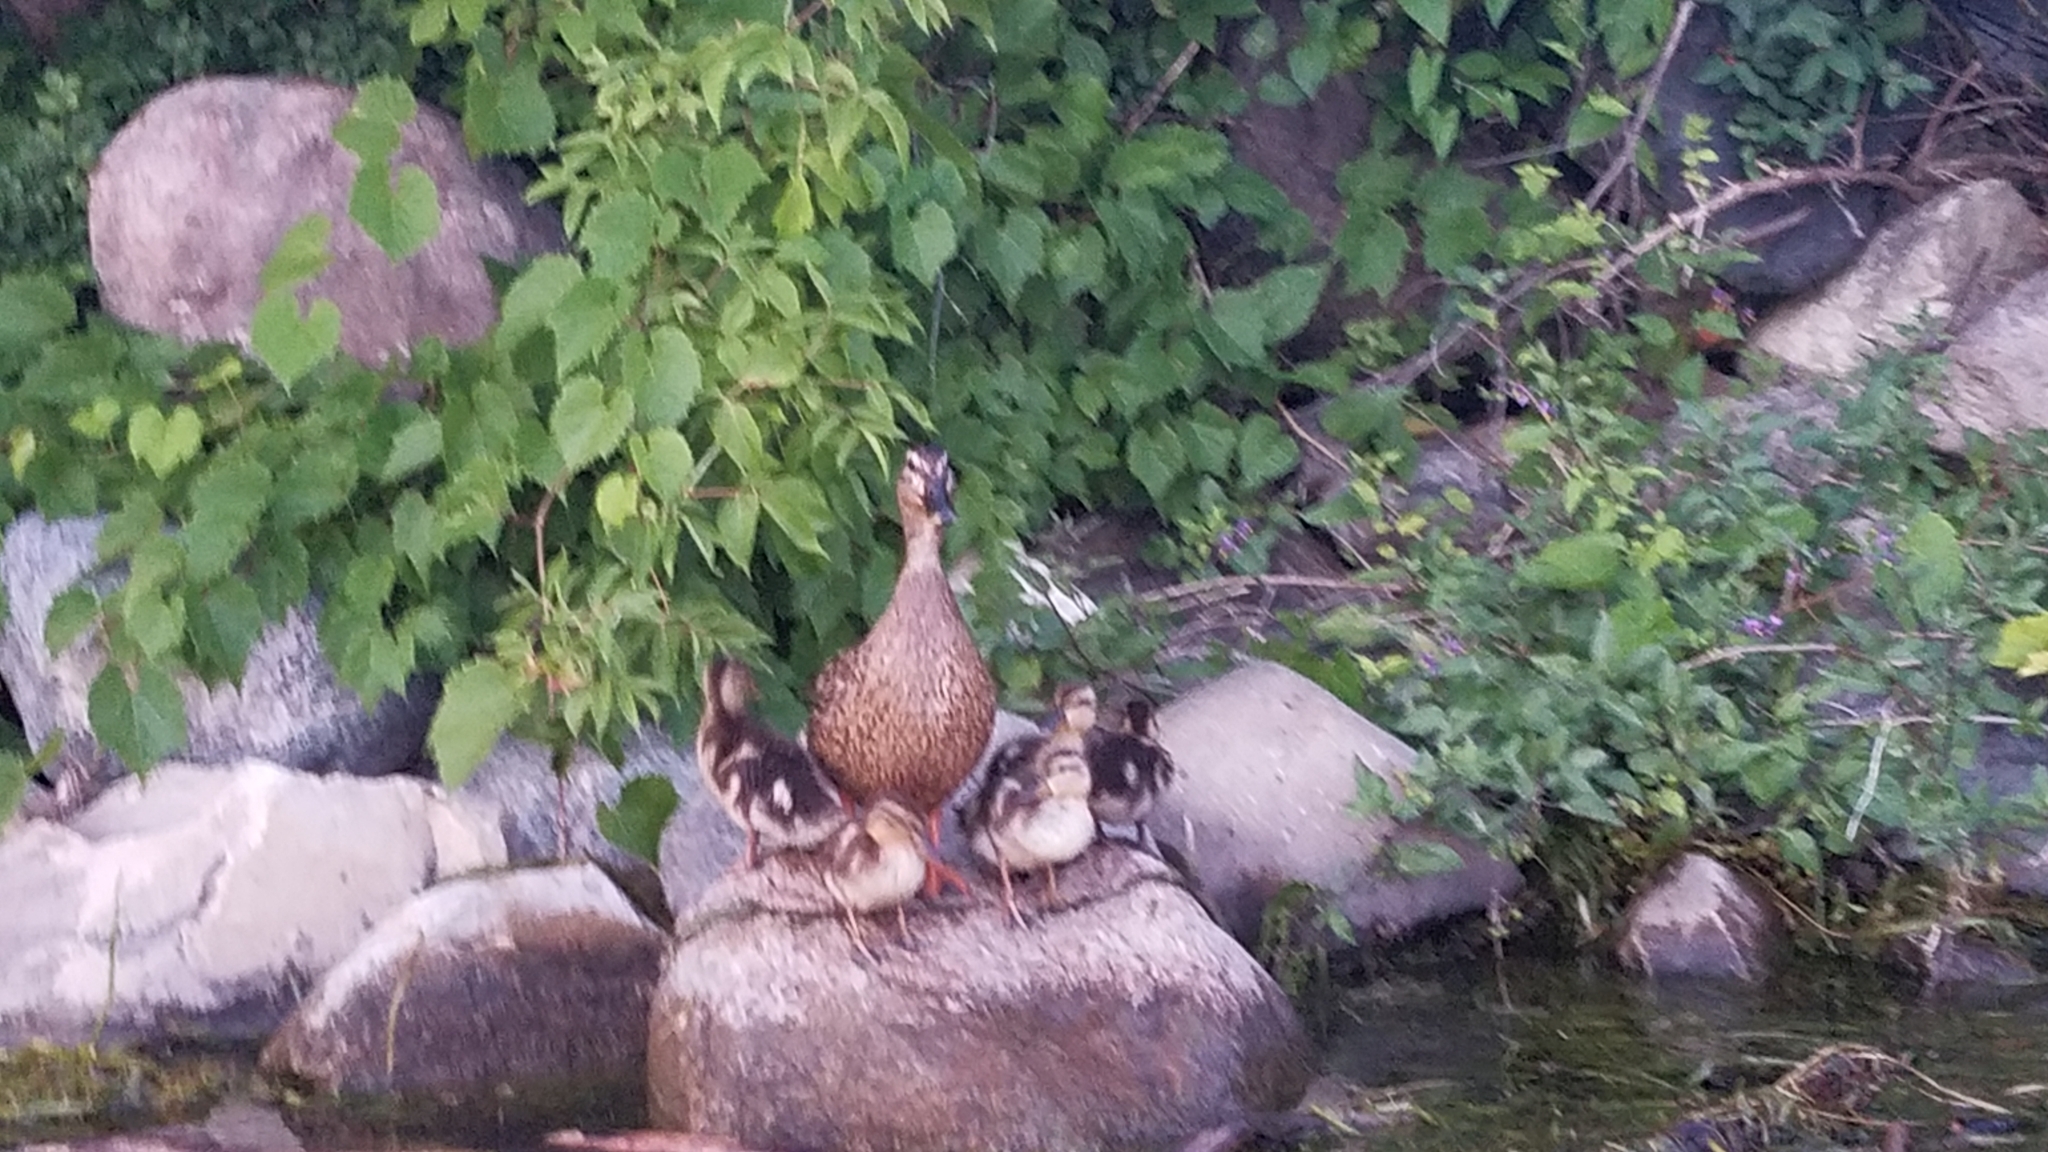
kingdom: Animalia
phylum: Chordata
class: Aves
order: Anseriformes
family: Anatidae
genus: Anas
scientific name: Anas platyrhynchos
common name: Mallard
